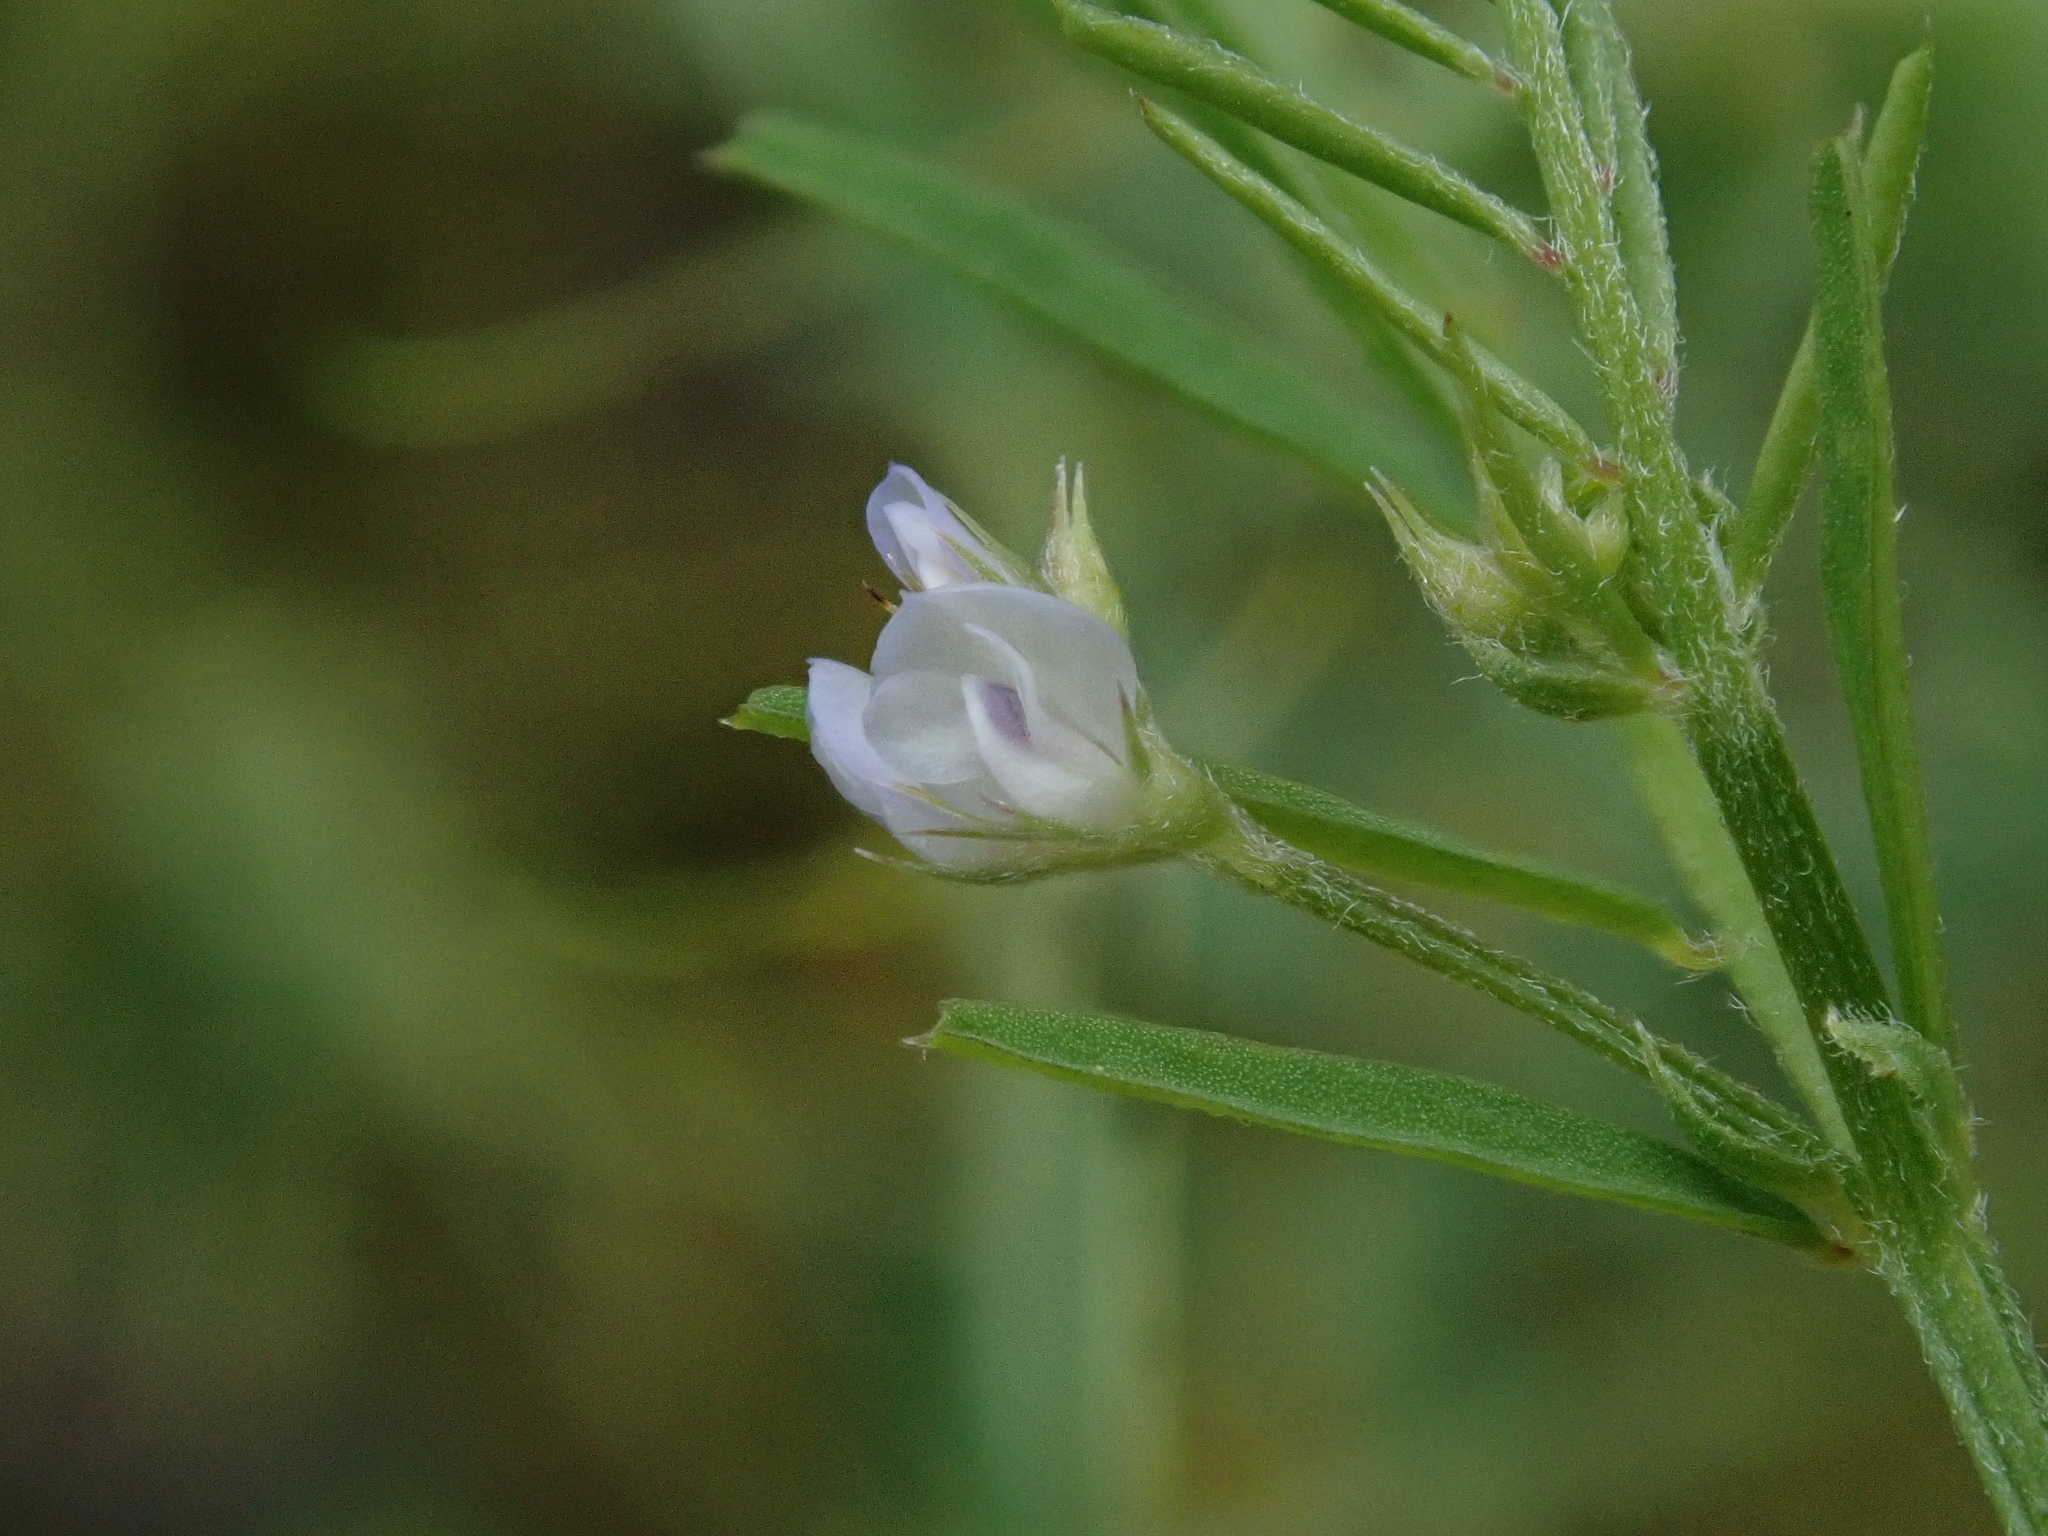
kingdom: Plantae
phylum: Tracheophyta
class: Magnoliopsida
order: Fabales
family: Fabaceae
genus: Vicia
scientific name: Vicia hirsuta
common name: Tiny vetch
